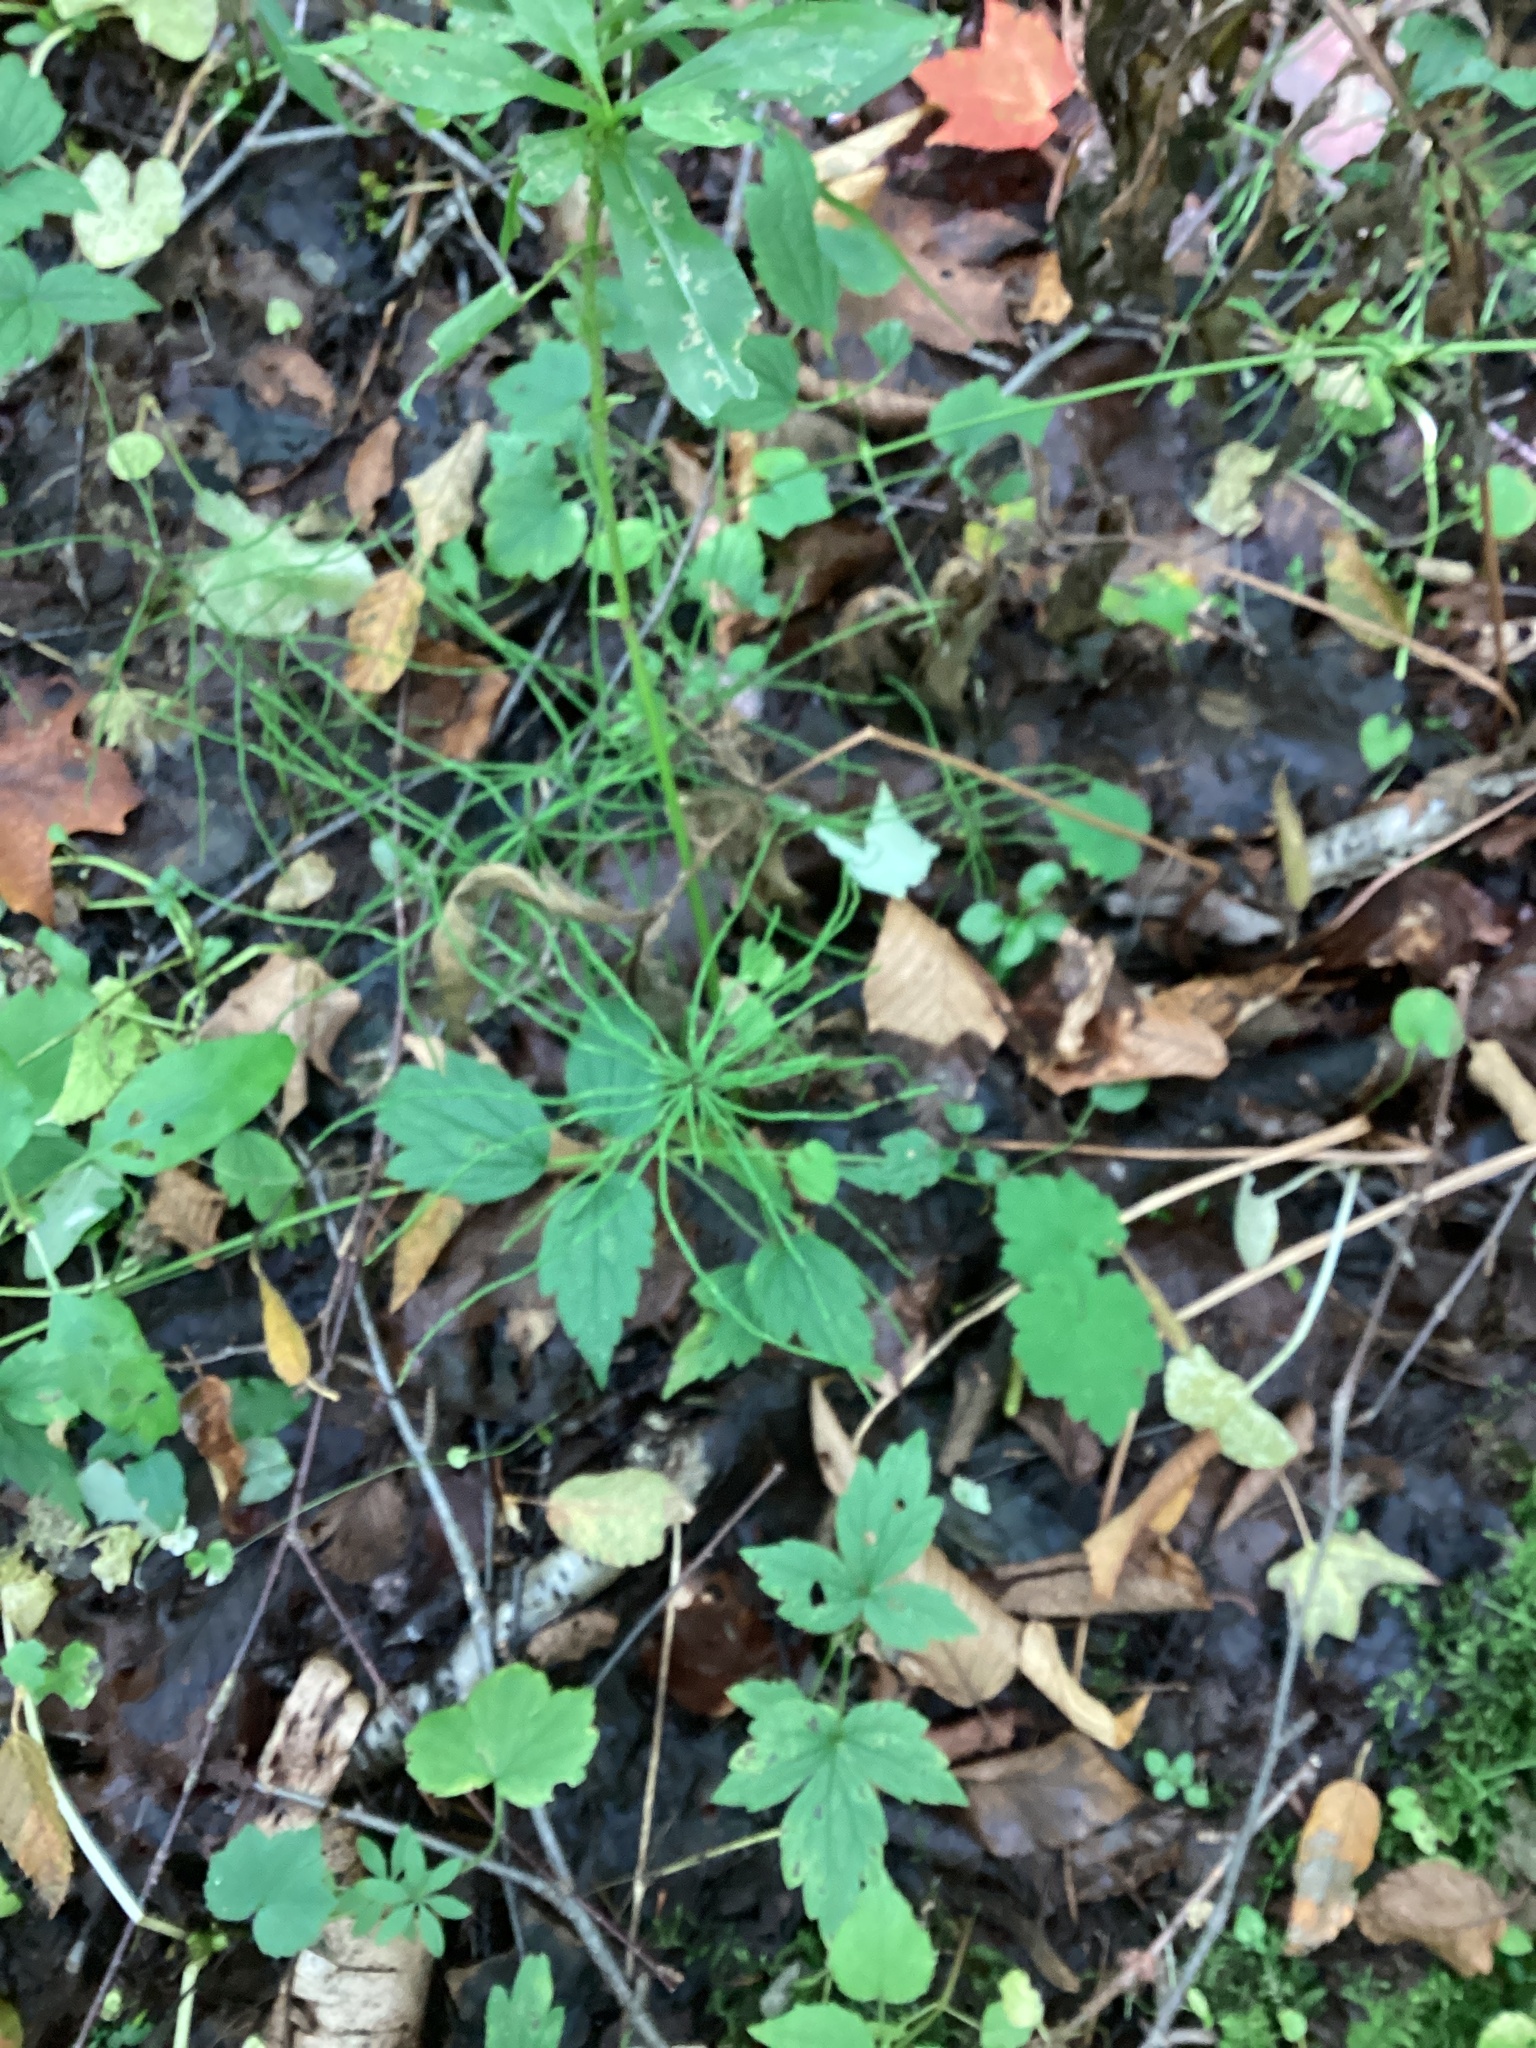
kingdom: Plantae
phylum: Tracheophyta
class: Polypodiopsida
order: Equisetales
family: Equisetaceae
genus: Equisetum
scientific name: Equisetum arvense
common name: Field horsetail
